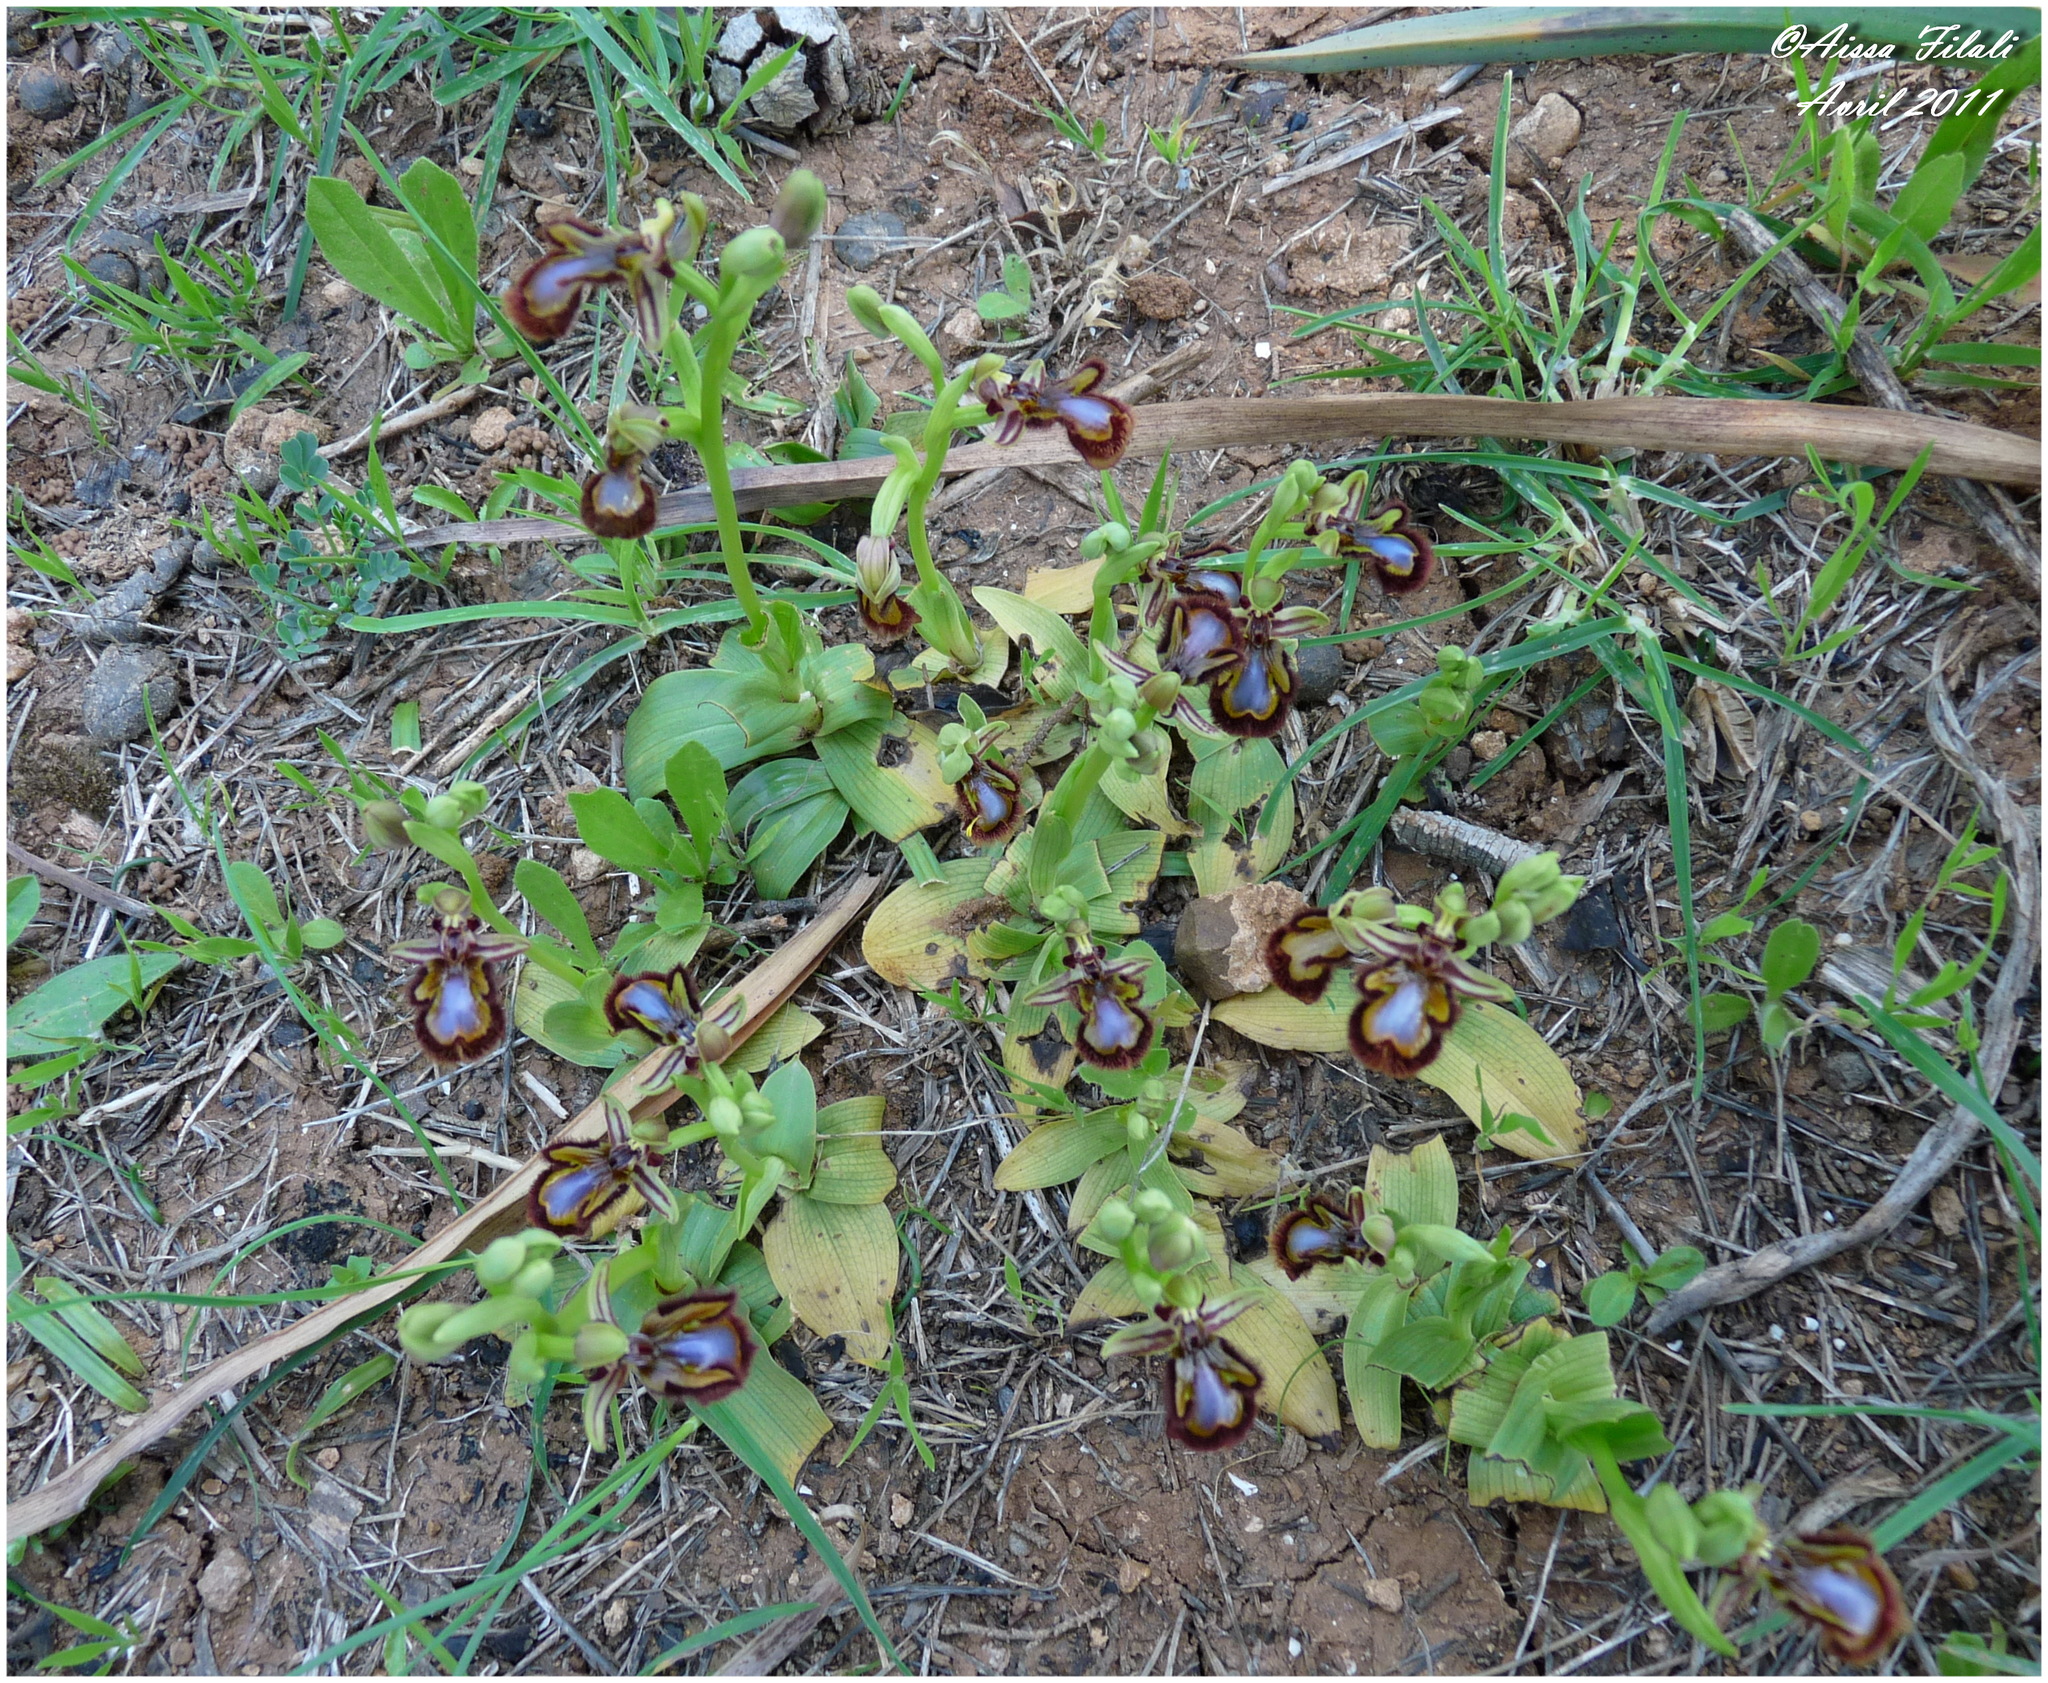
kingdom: Plantae
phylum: Tracheophyta
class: Liliopsida
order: Asparagales
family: Orchidaceae
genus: Ophrys
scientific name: Ophrys speculum
